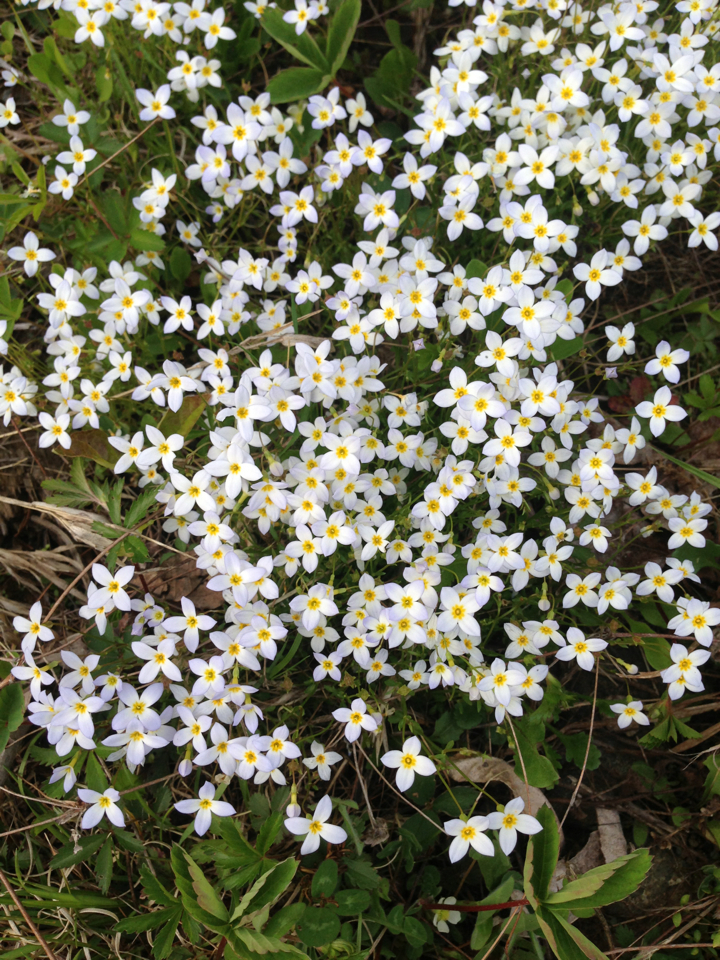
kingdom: Plantae
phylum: Tracheophyta
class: Magnoliopsida
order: Gentianales
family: Rubiaceae
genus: Houstonia
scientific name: Houstonia caerulea
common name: Bluets
